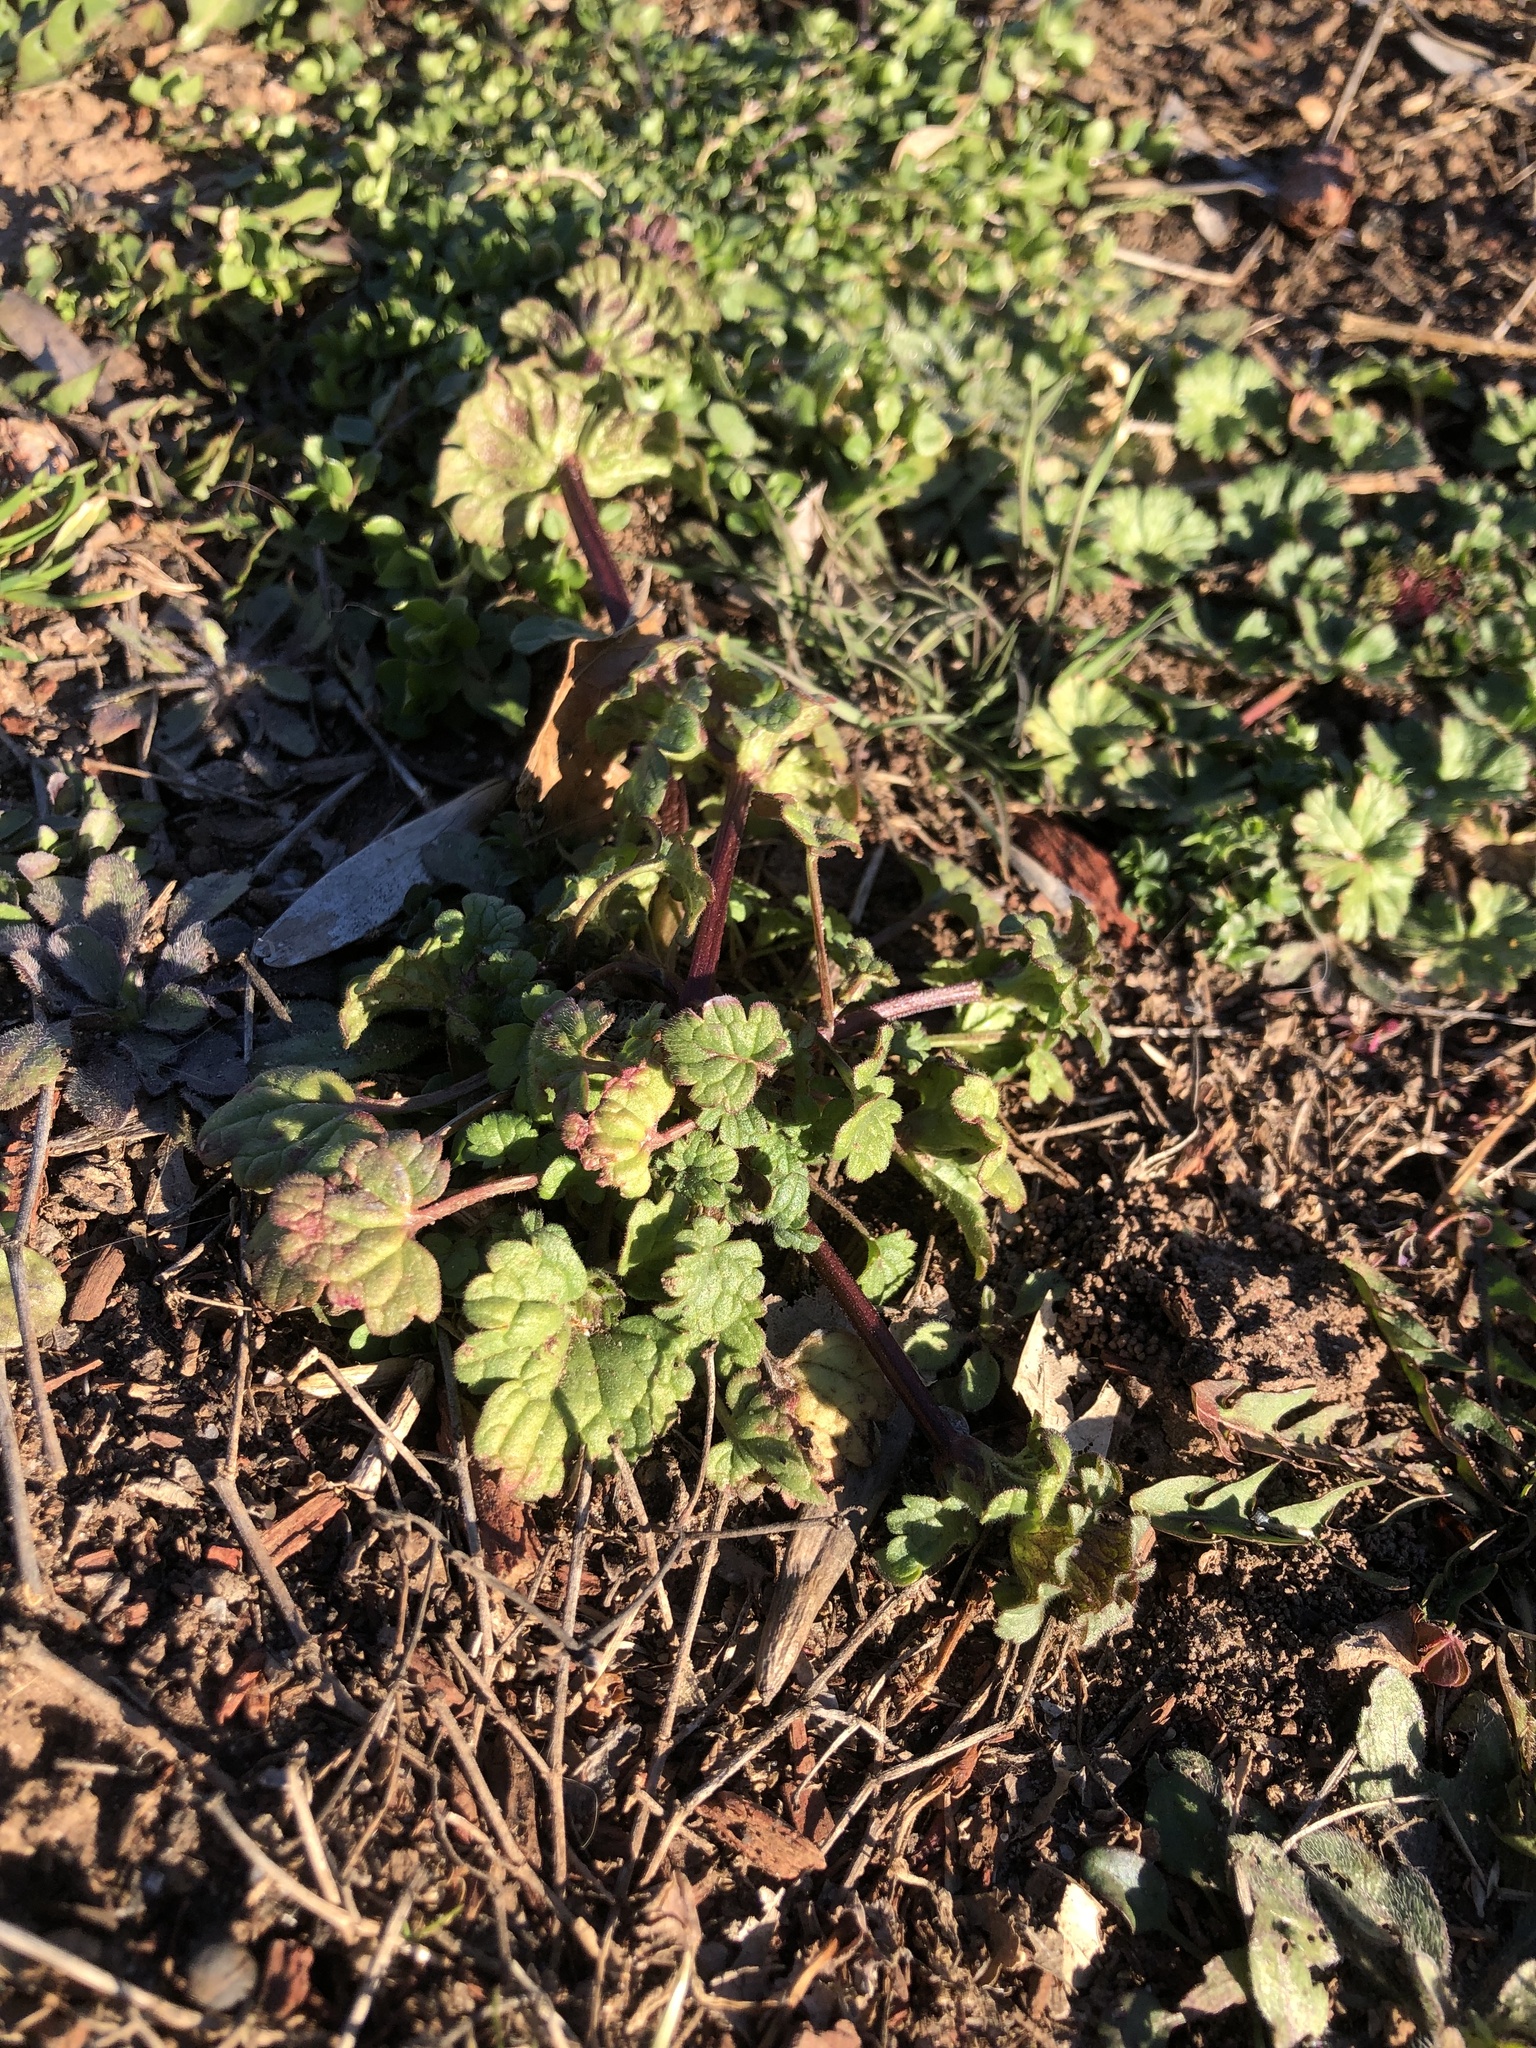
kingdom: Plantae
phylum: Tracheophyta
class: Magnoliopsida
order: Lamiales
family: Lamiaceae
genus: Lamium
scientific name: Lamium amplexicaule
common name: Henbit dead-nettle
